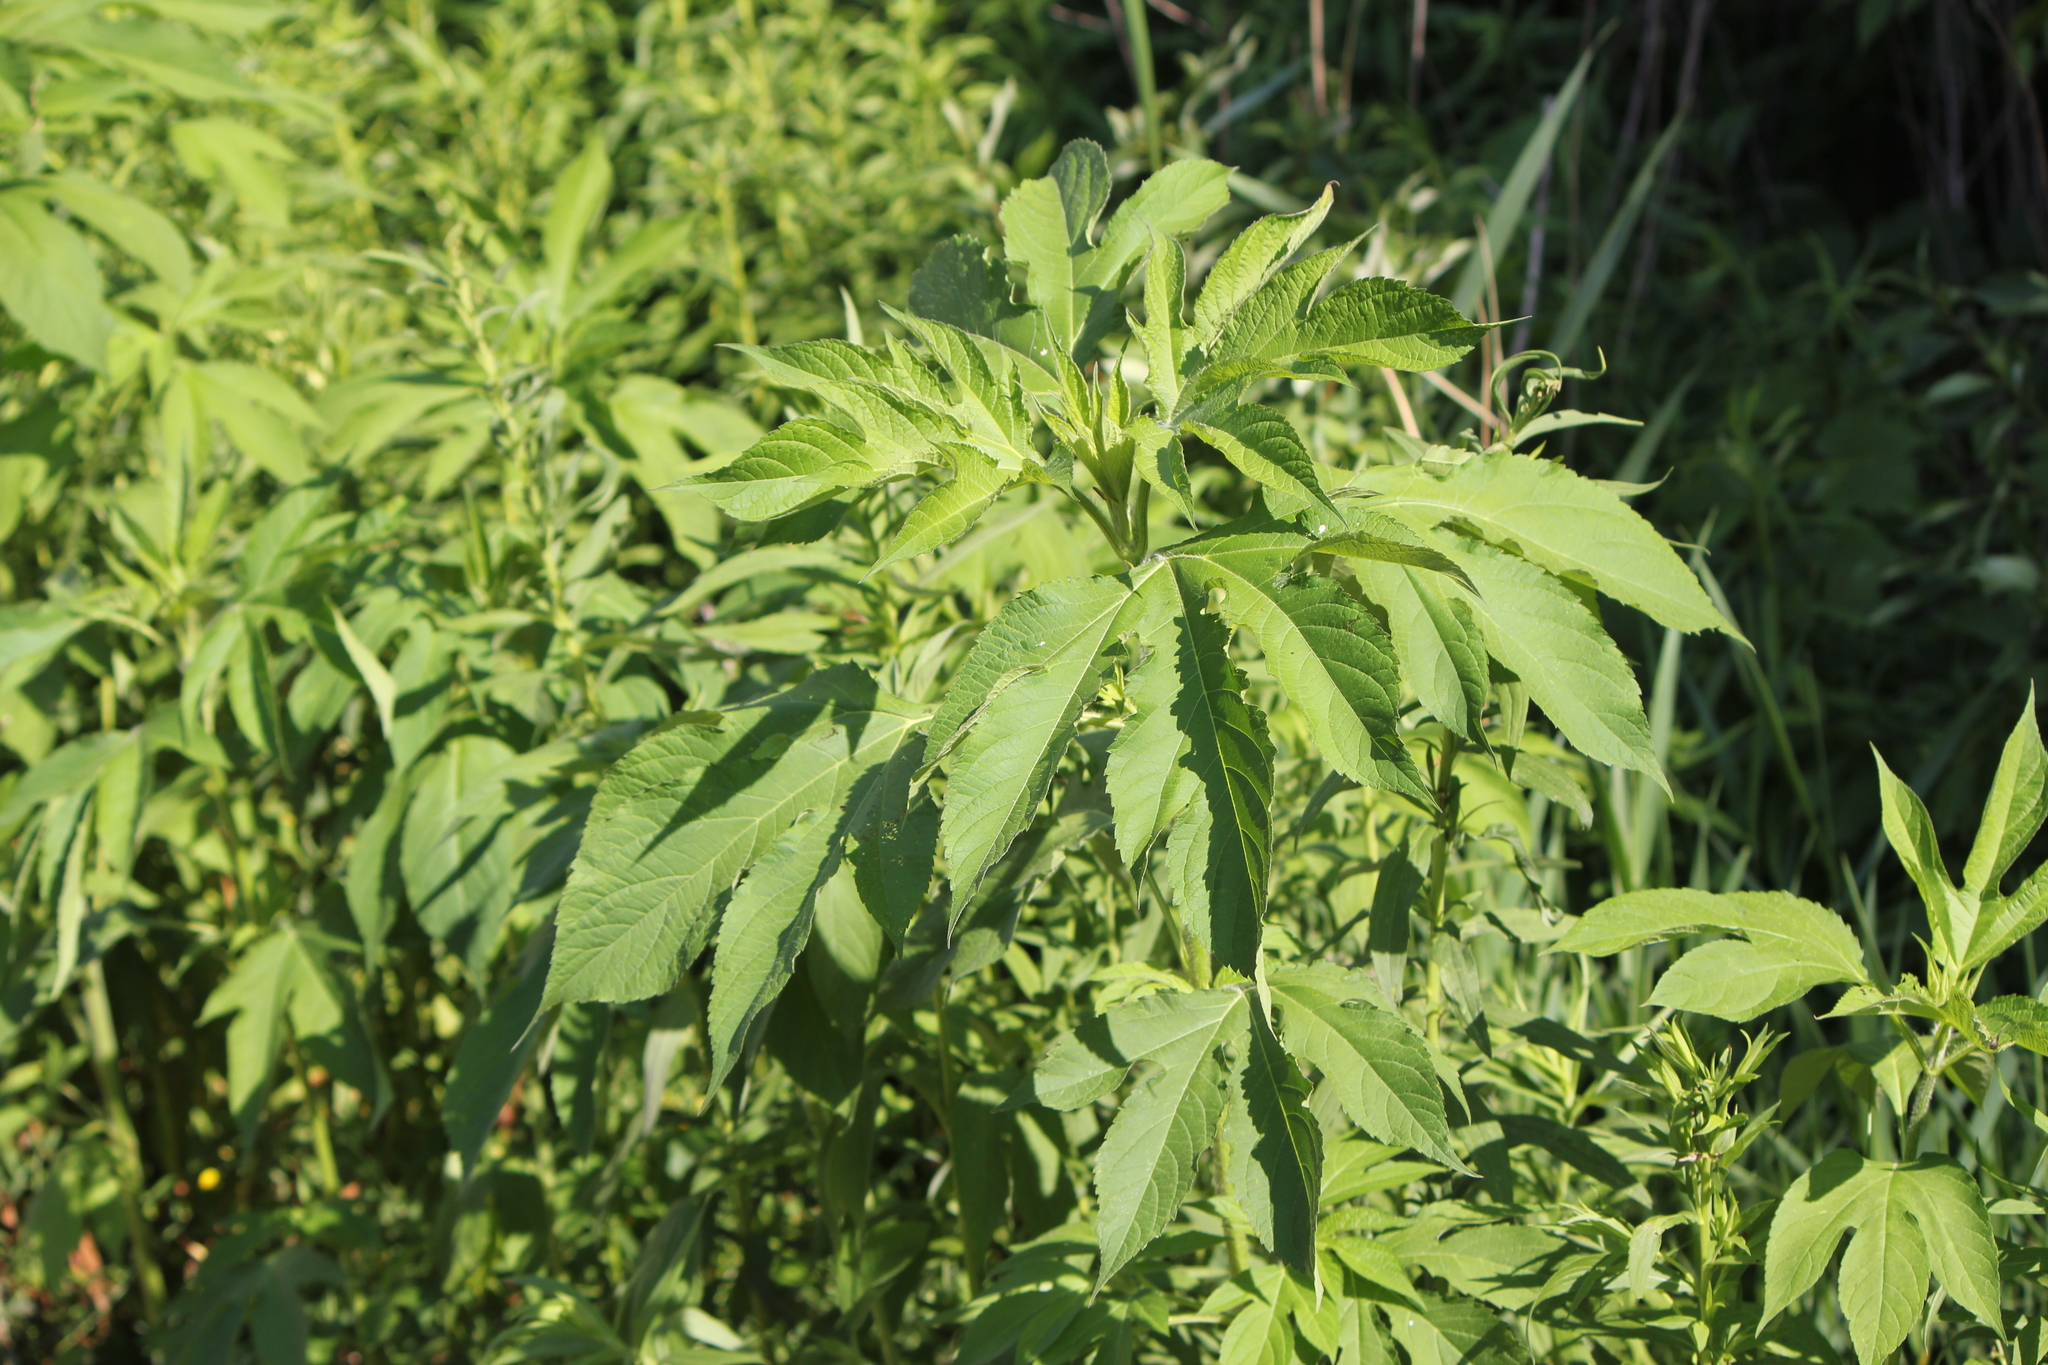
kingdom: Plantae
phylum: Tracheophyta
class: Magnoliopsida
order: Asterales
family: Asteraceae
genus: Ambrosia
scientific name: Ambrosia trifida
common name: Giant ragweed
